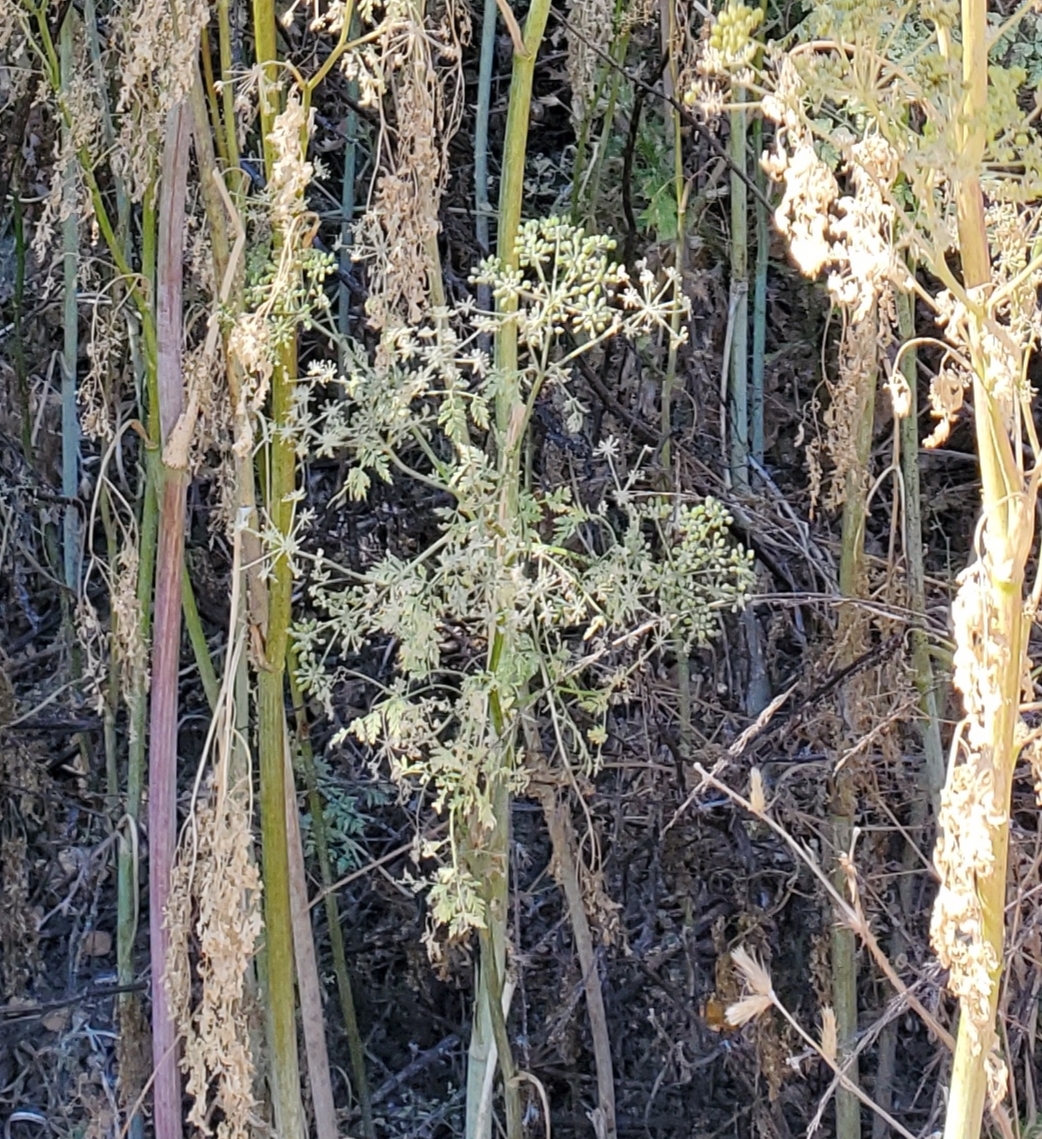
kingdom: Plantae
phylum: Tracheophyta
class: Magnoliopsida
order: Apiales
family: Apiaceae
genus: Conium
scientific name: Conium maculatum
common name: Hemlock
